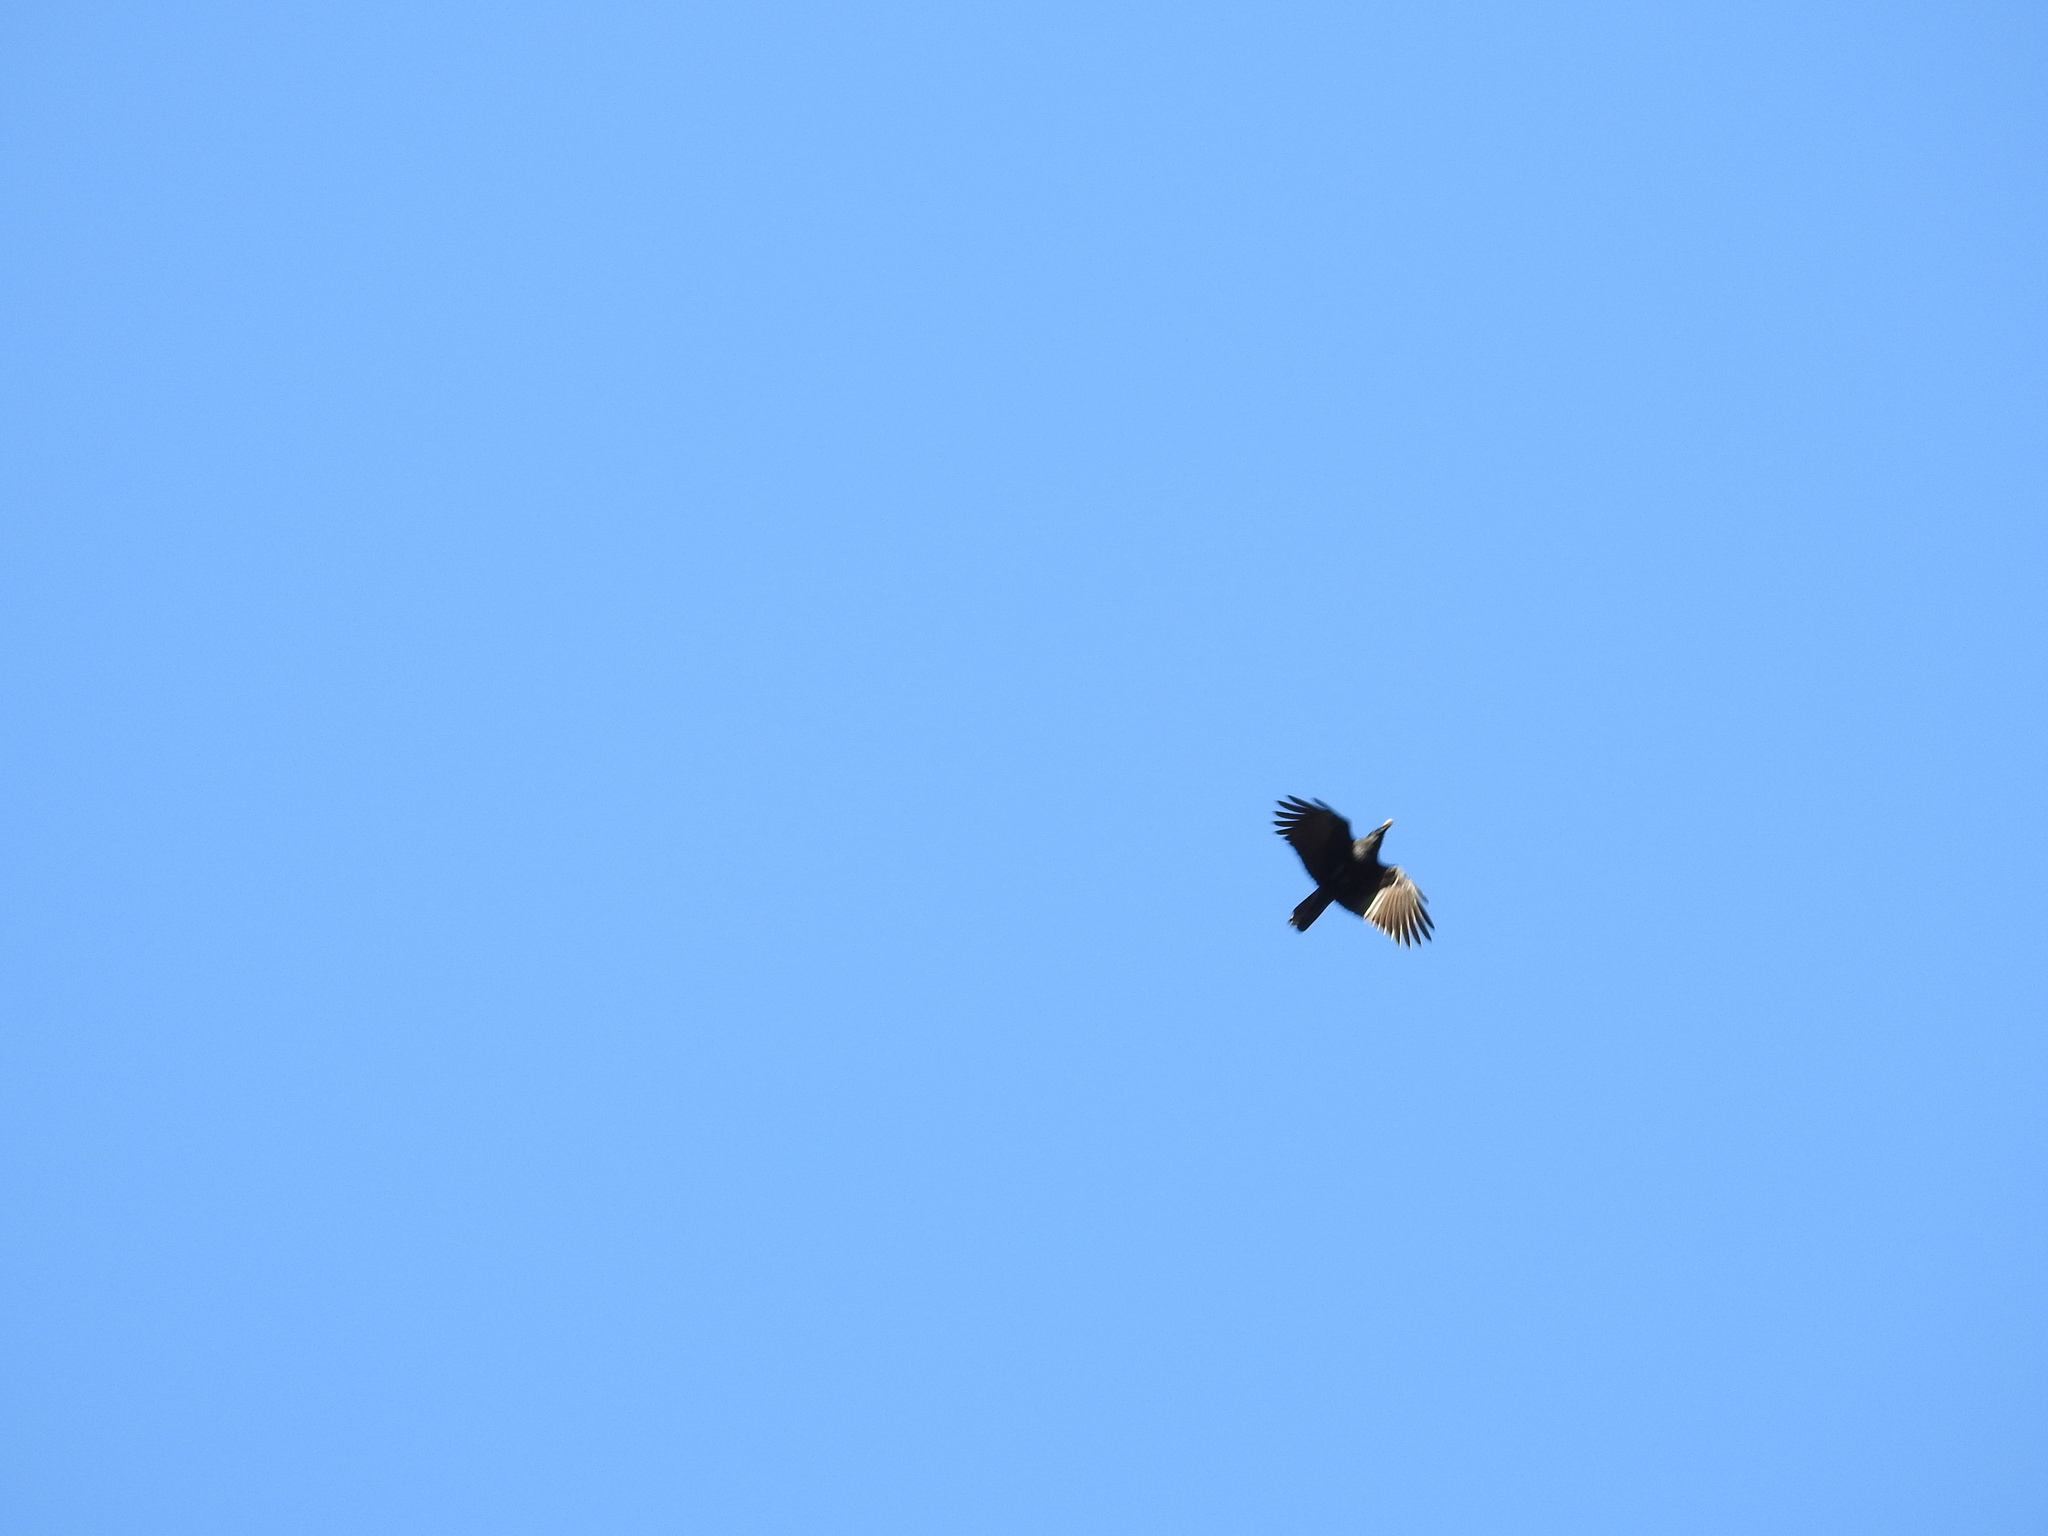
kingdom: Animalia
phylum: Chordata
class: Aves
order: Passeriformes
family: Corvidae
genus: Corvus
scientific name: Corvus brachyrhynchos
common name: American crow
